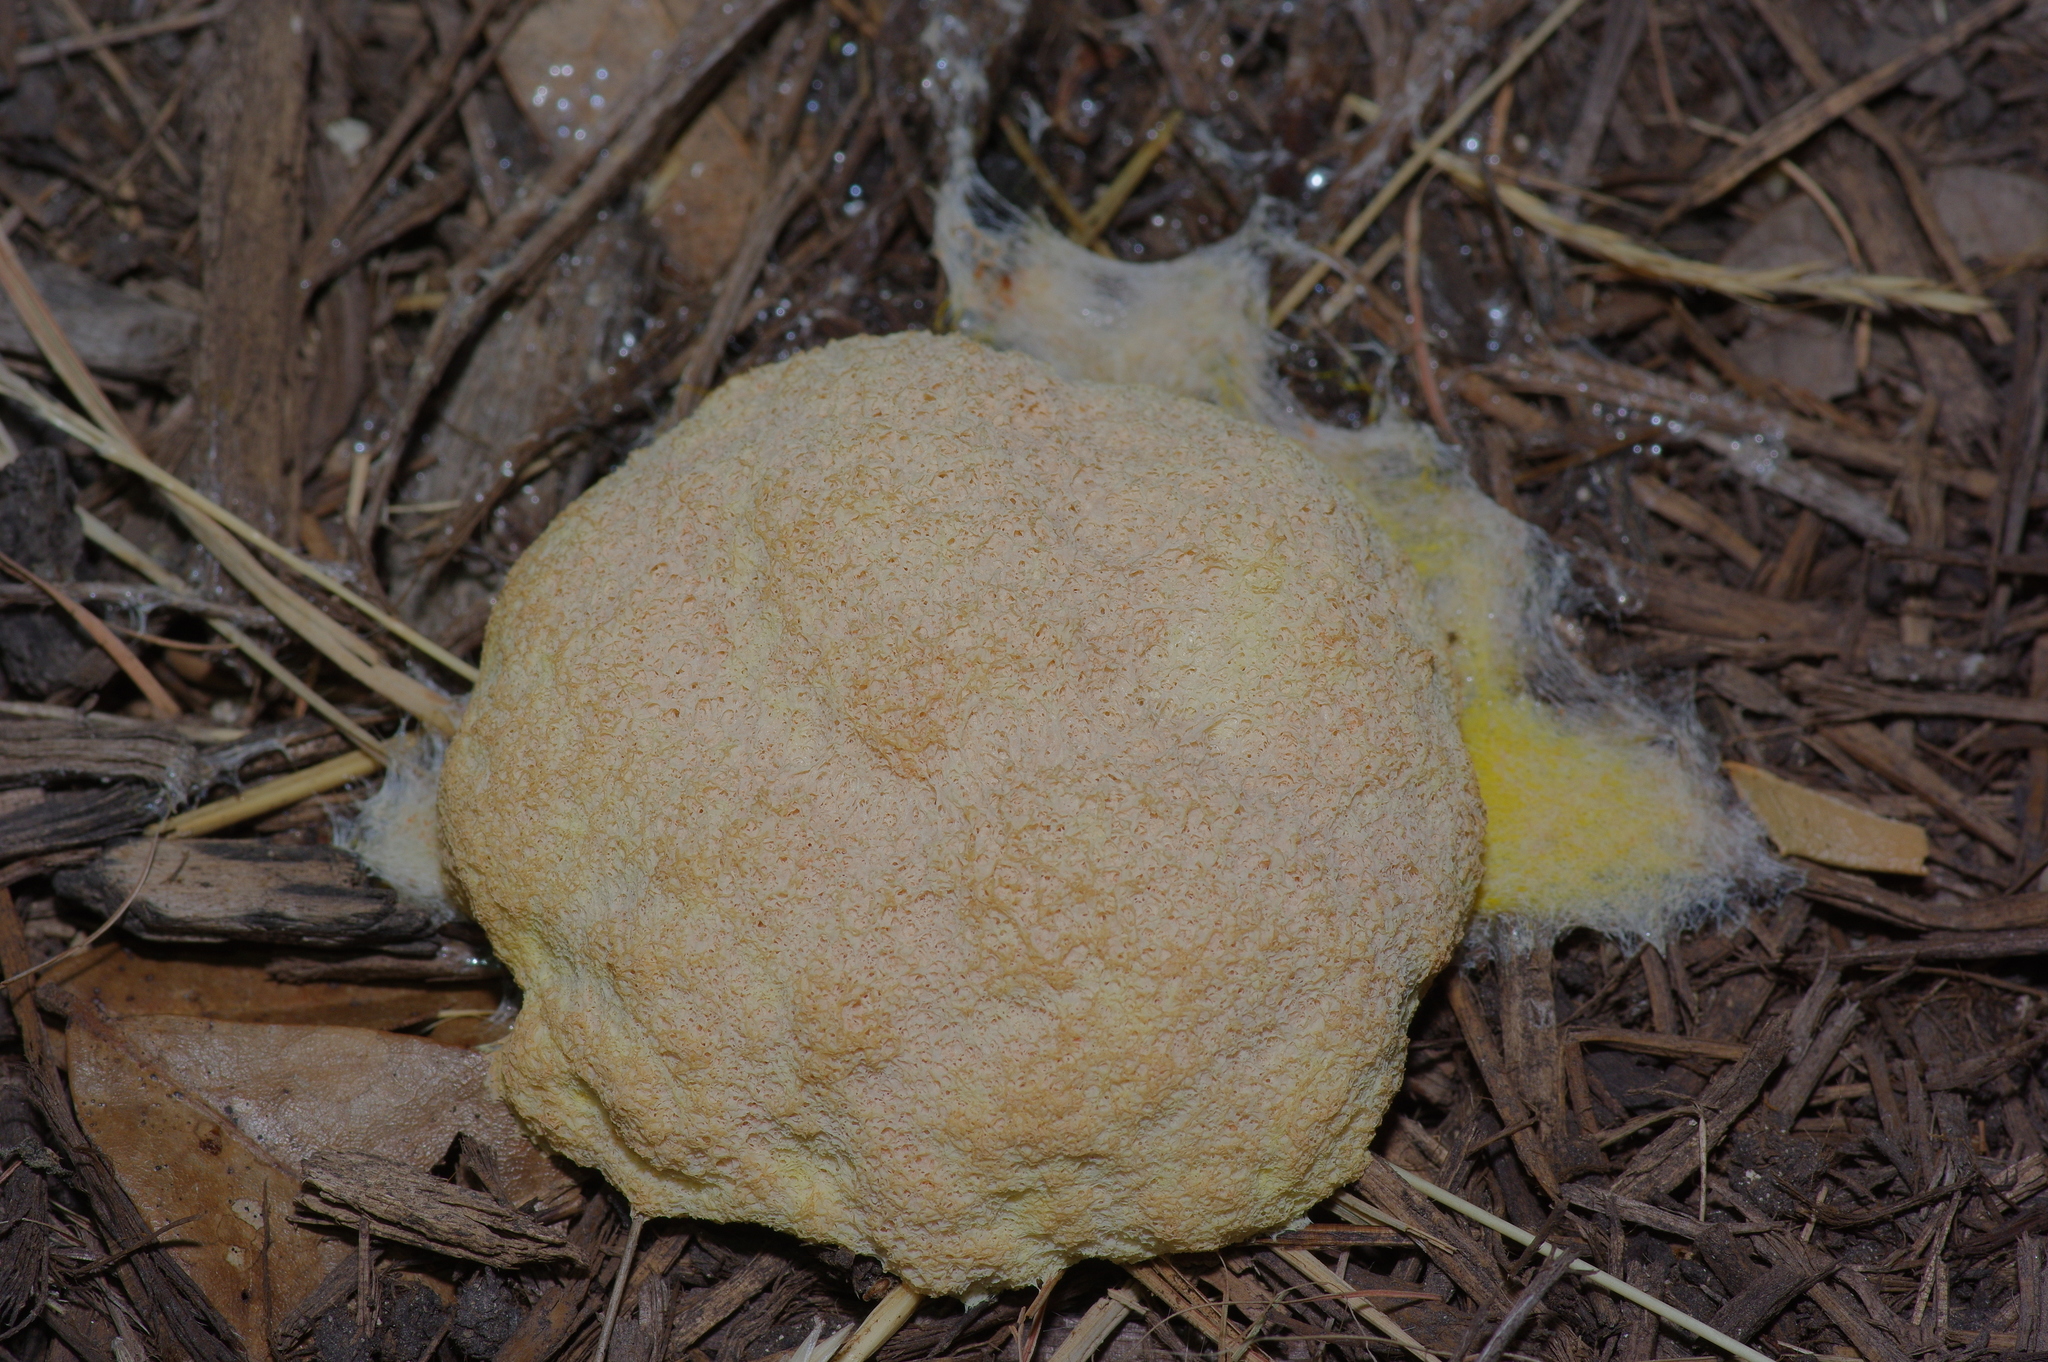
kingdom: Protozoa
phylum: Mycetozoa
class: Myxomycetes
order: Physarales
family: Physaraceae
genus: Fuligo
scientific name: Fuligo septica
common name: Dog vomit slime mold
